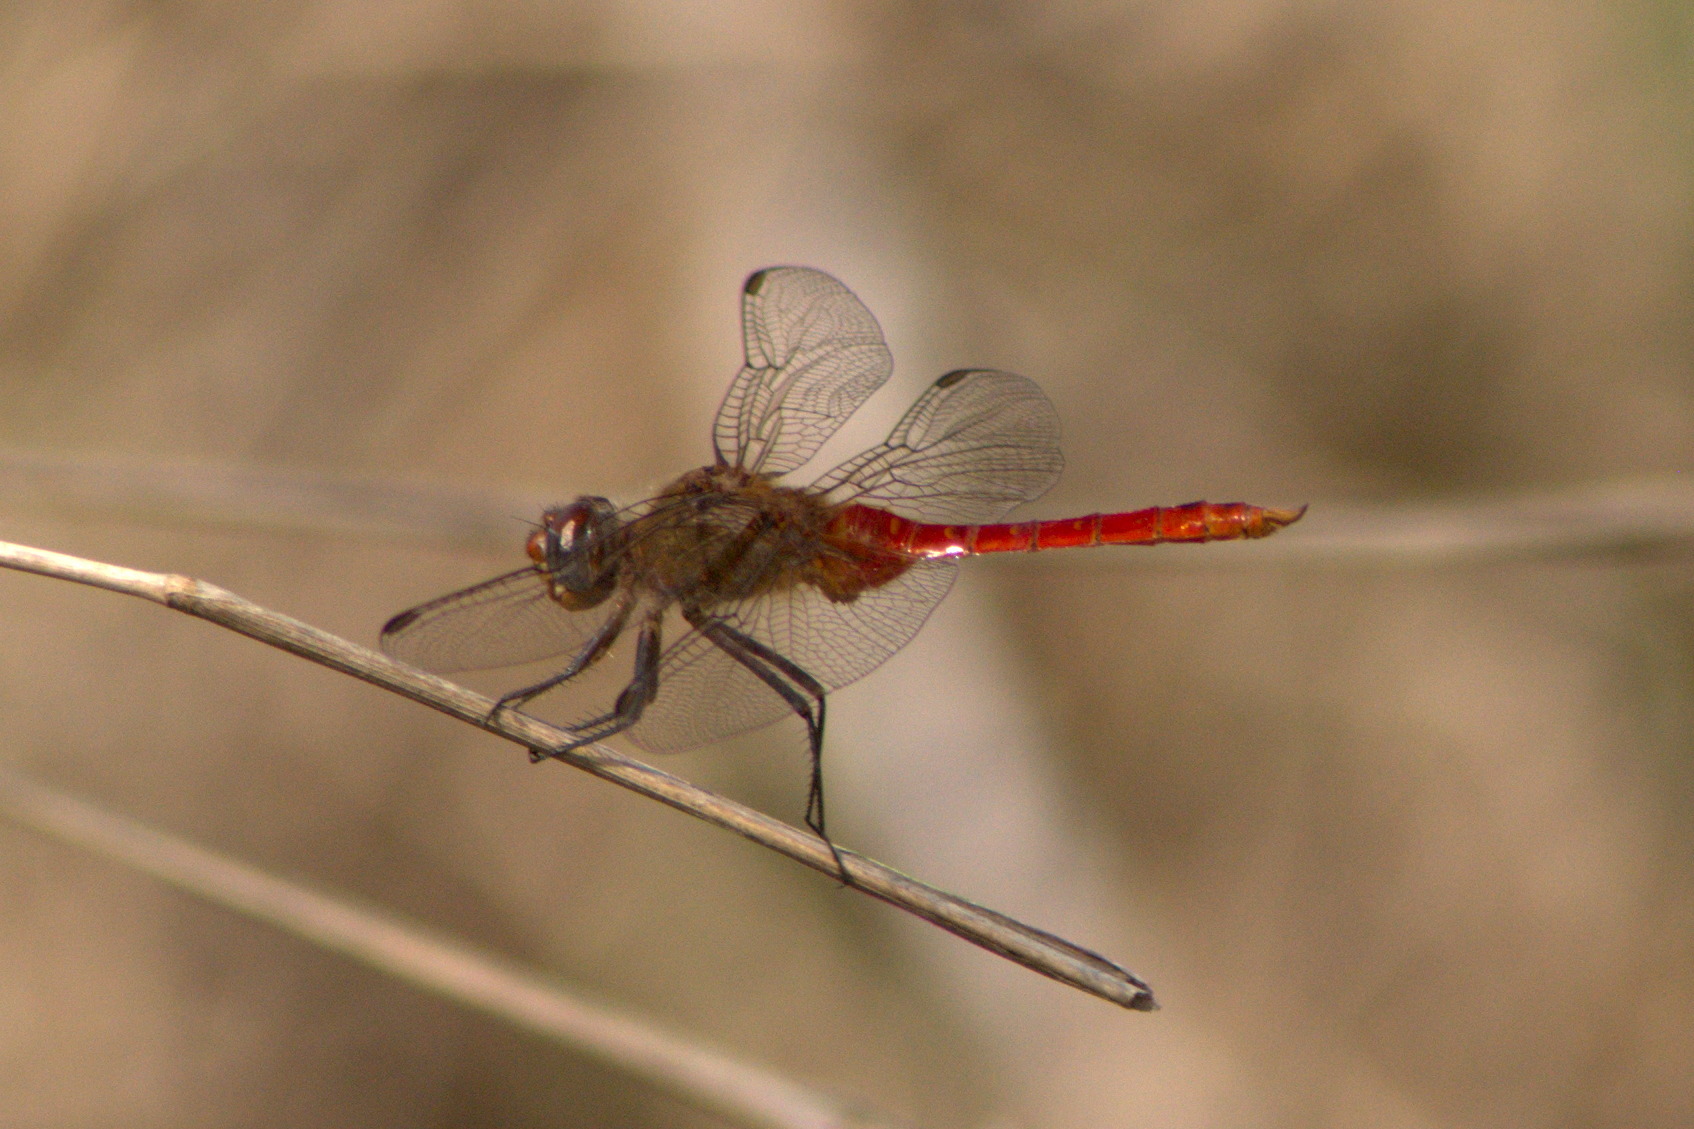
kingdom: Animalia
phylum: Arthropoda
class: Insecta
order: Odonata
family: Libellulidae
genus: Brachymesia
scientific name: Brachymesia furcata
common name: Red-taled pennant
